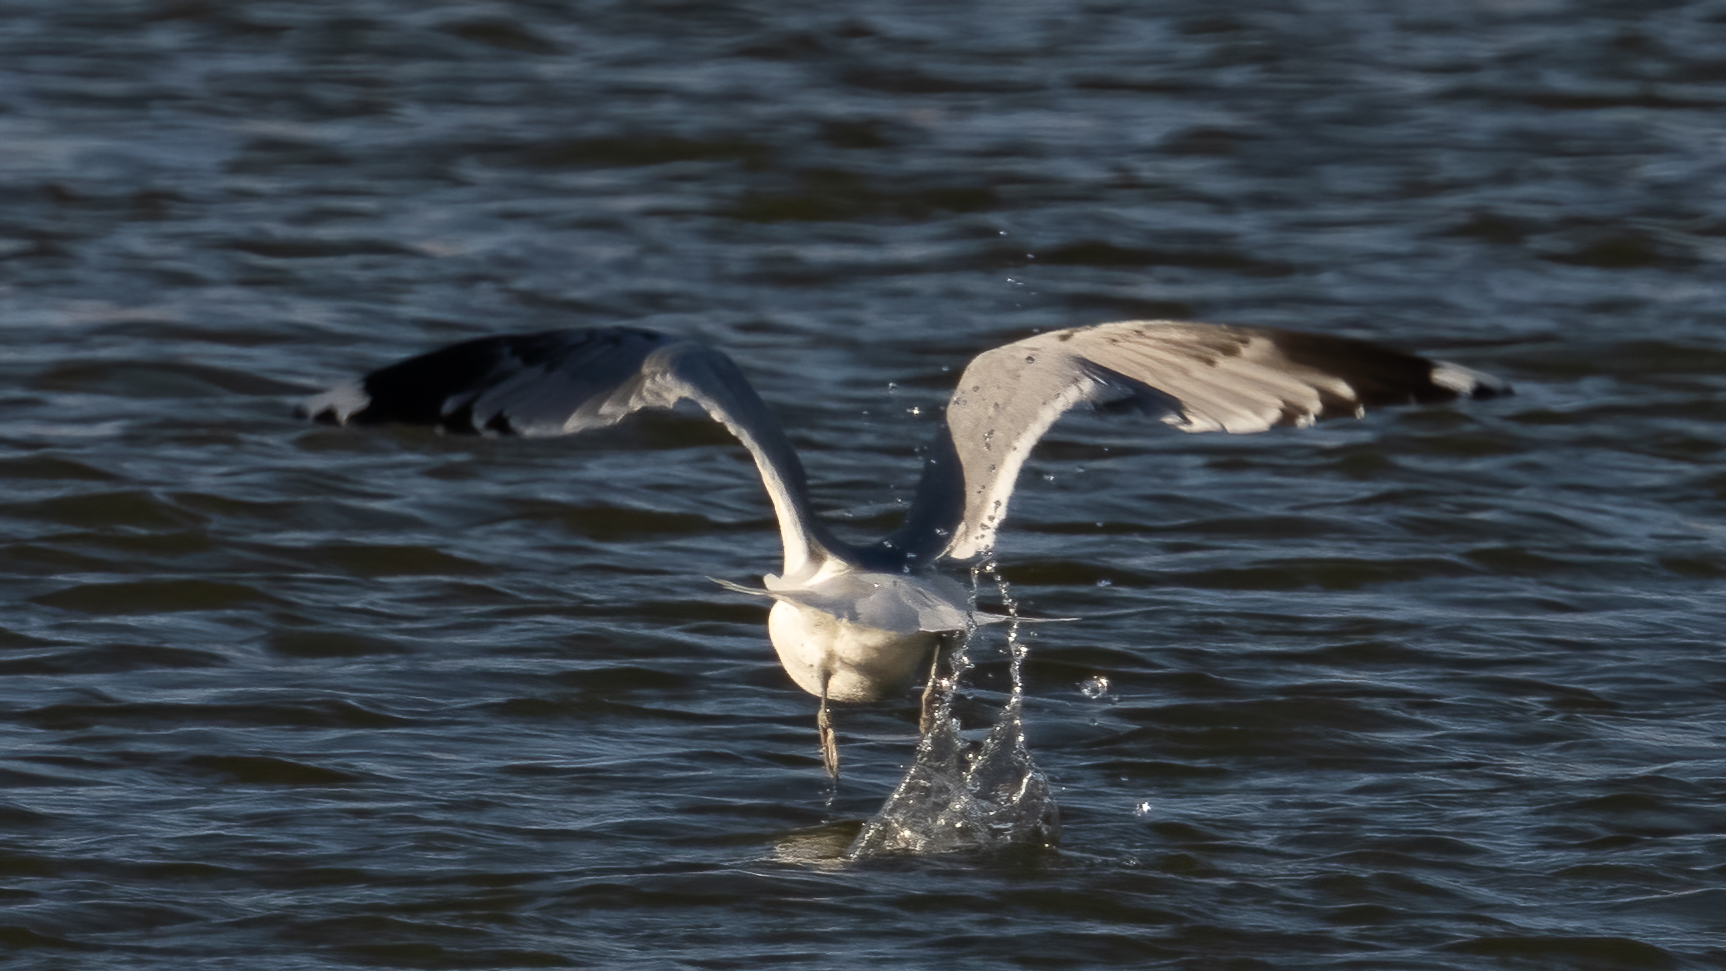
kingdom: Animalia
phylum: Chordata
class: Aves
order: Charadriiformes
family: Laridae
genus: Larus
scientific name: Larus canus
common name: Mew gull
